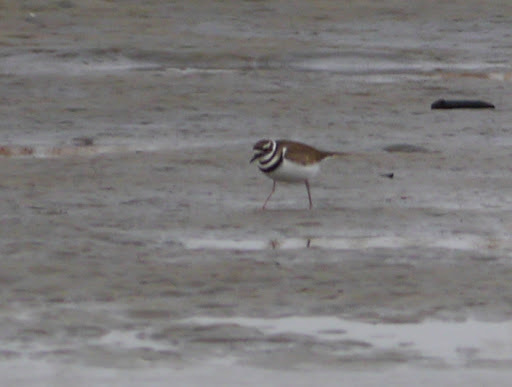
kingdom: Animalia
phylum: Chordata
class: Aves
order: Charadriiformes
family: Charadriidae
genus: Charadrius
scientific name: Charadrius vociferus
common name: Killdeer
